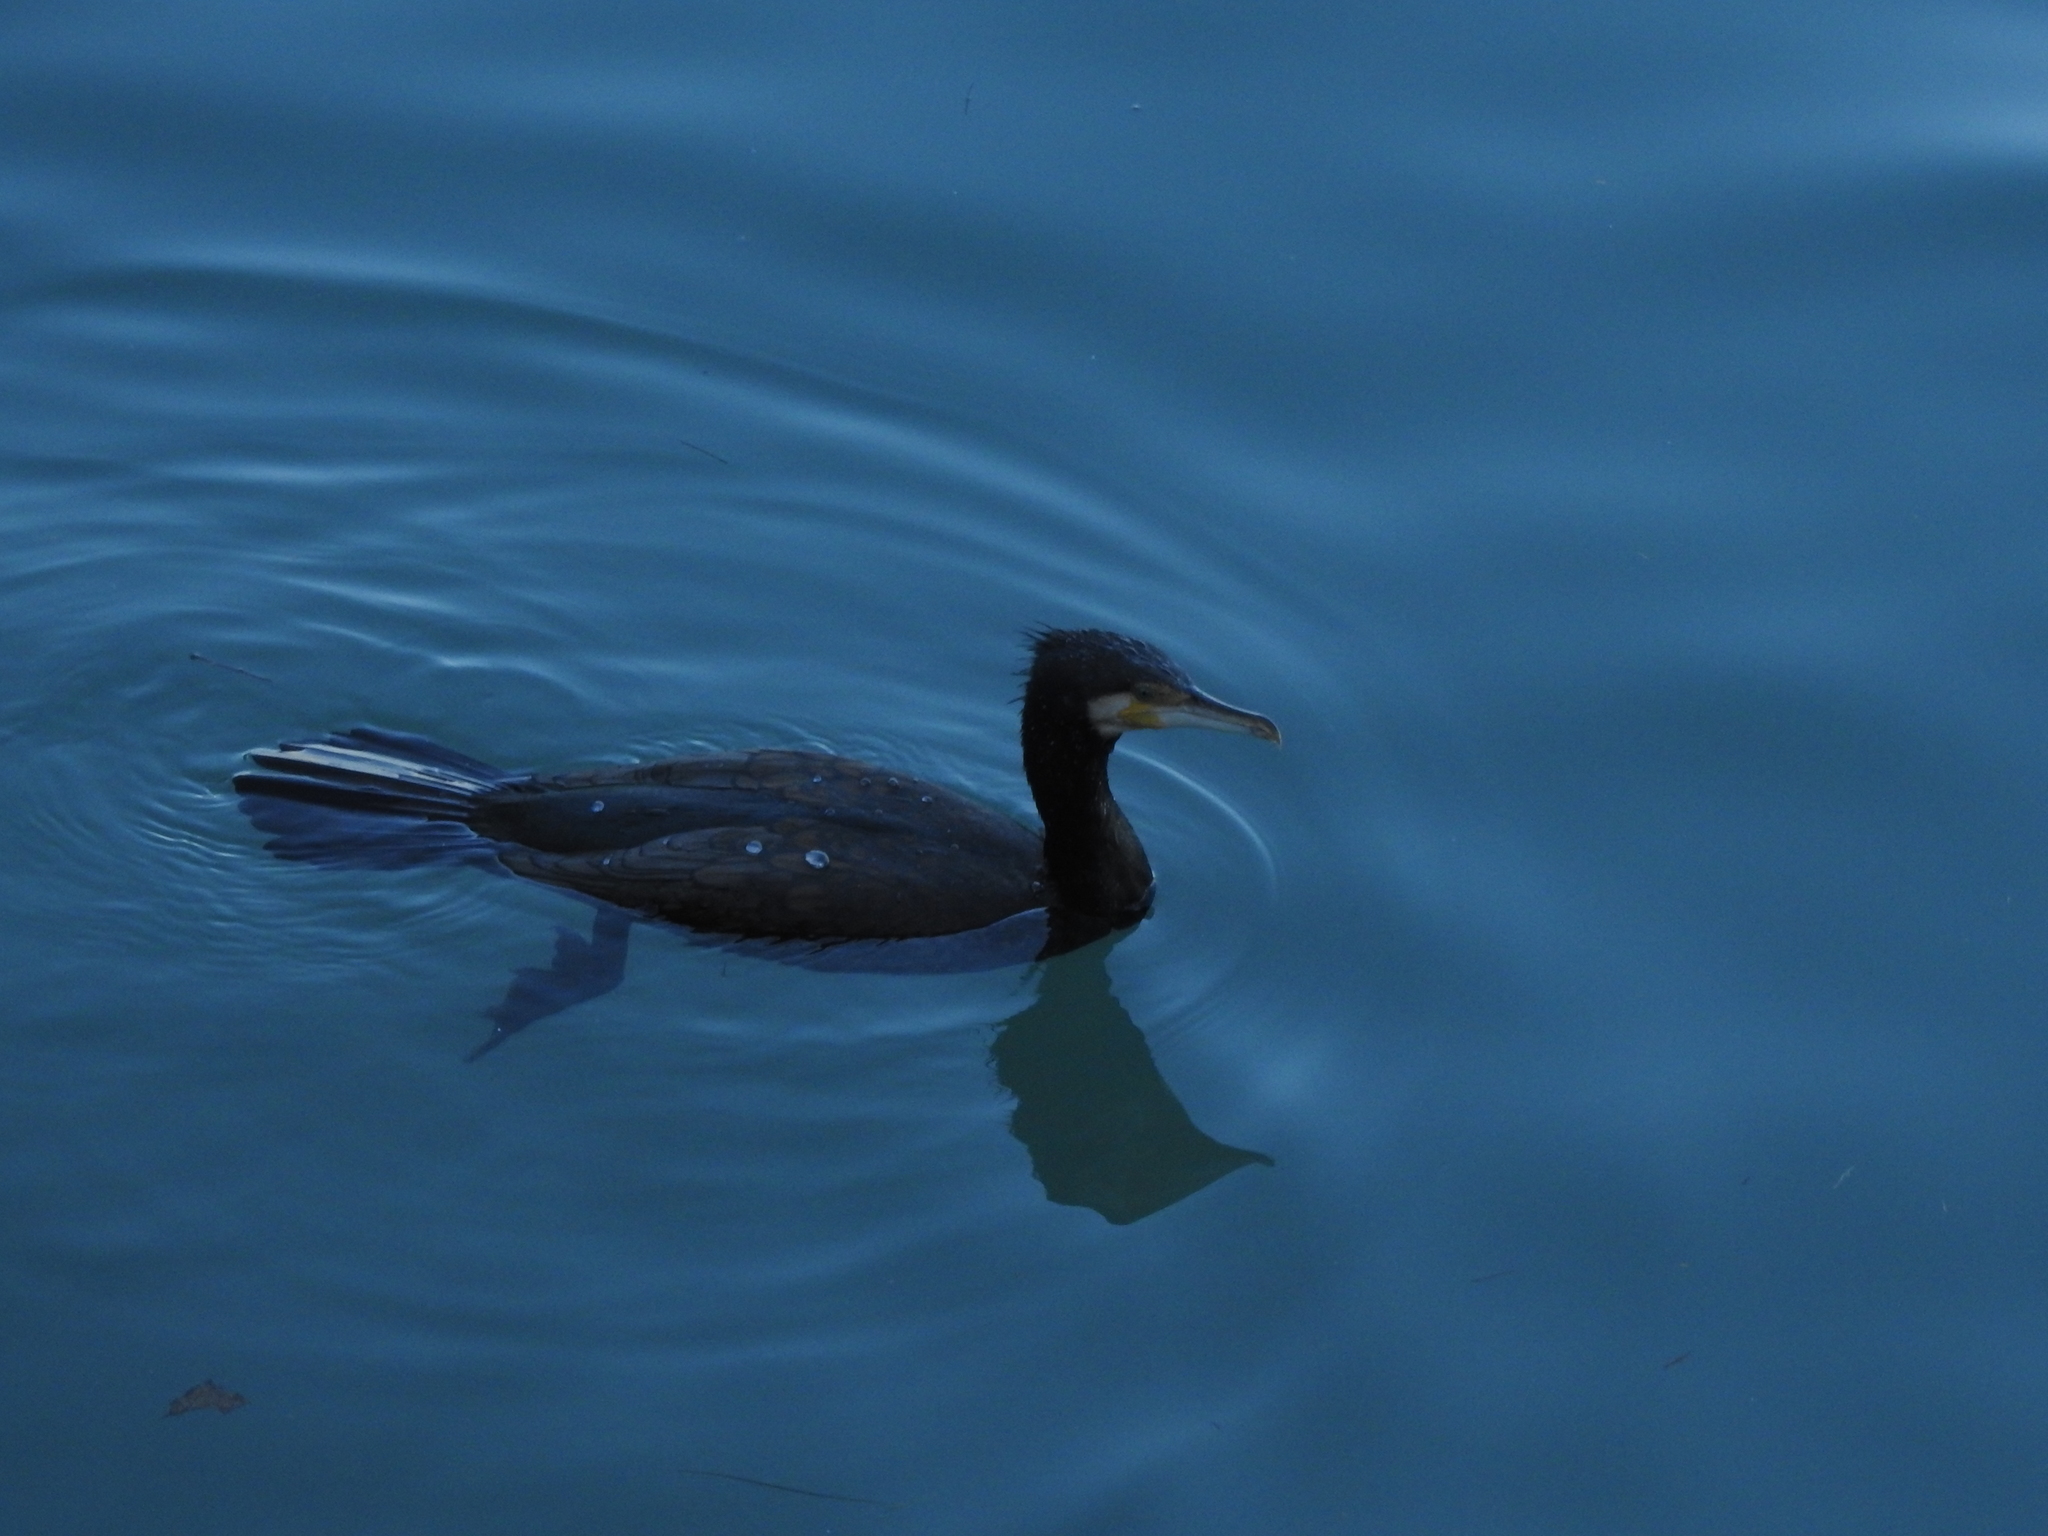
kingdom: Animalia
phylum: Chordata
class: Aves
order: Suliformes
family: Phalacrocoracidae
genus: Phalacrocorax
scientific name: Phalacrocorax carbo
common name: Great cormorant
